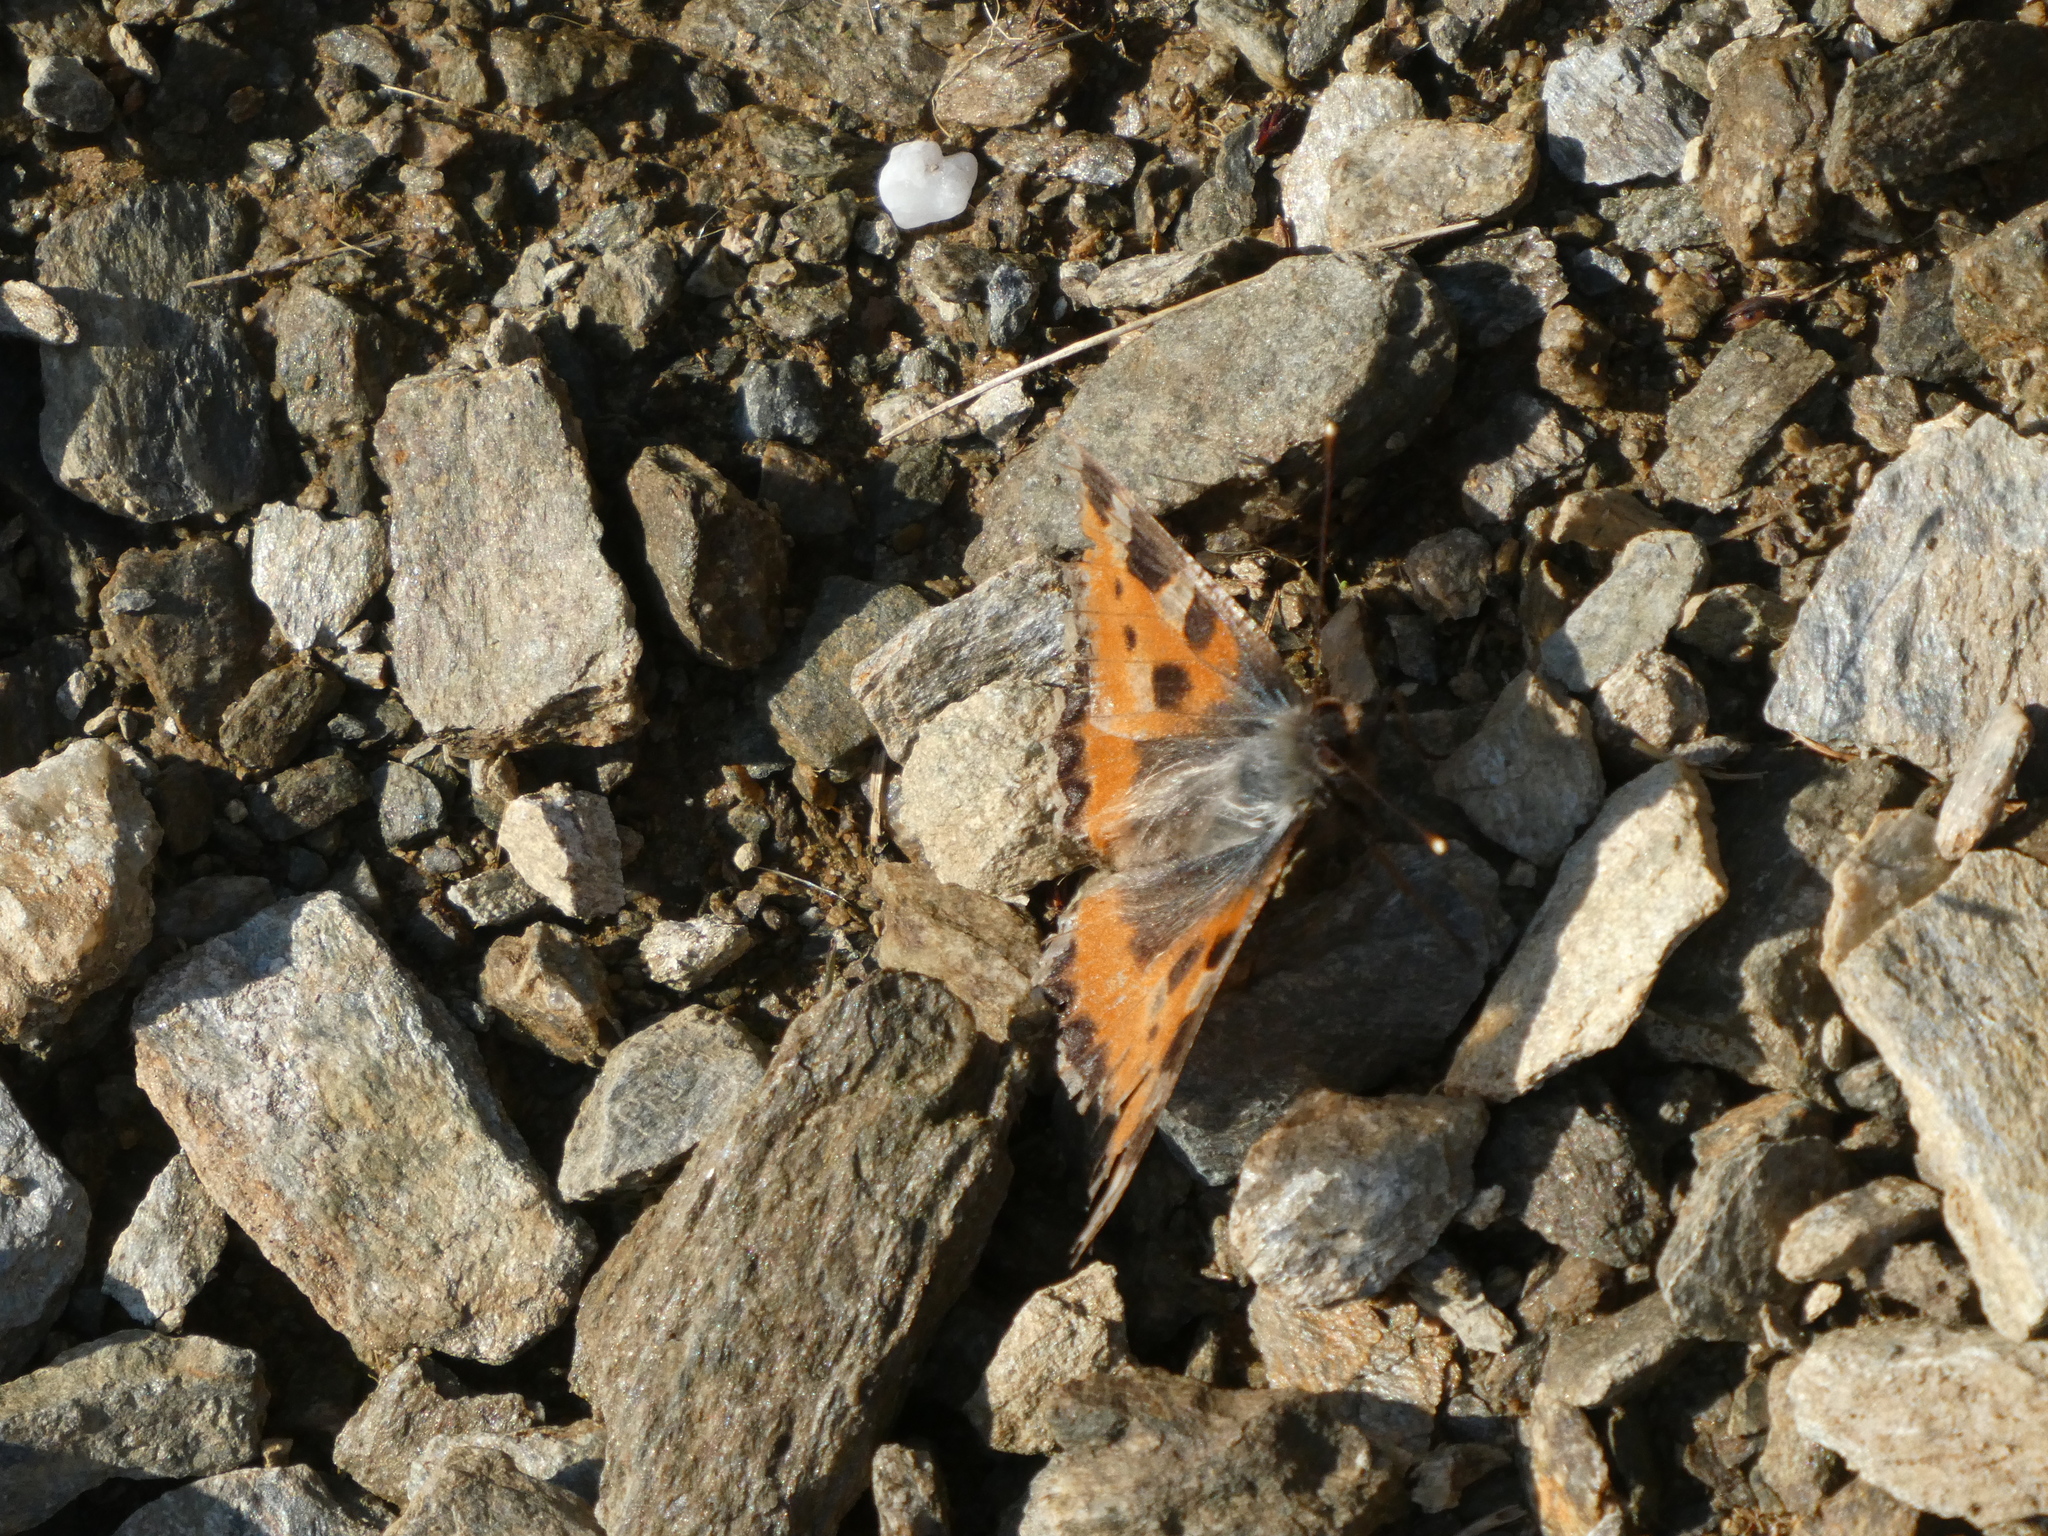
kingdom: Animalia
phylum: Arthropoda
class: Insecta
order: Lepidoptera
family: Nymphalidae
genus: Aglais
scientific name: Aglais urticae
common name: Small tortoiseshell
